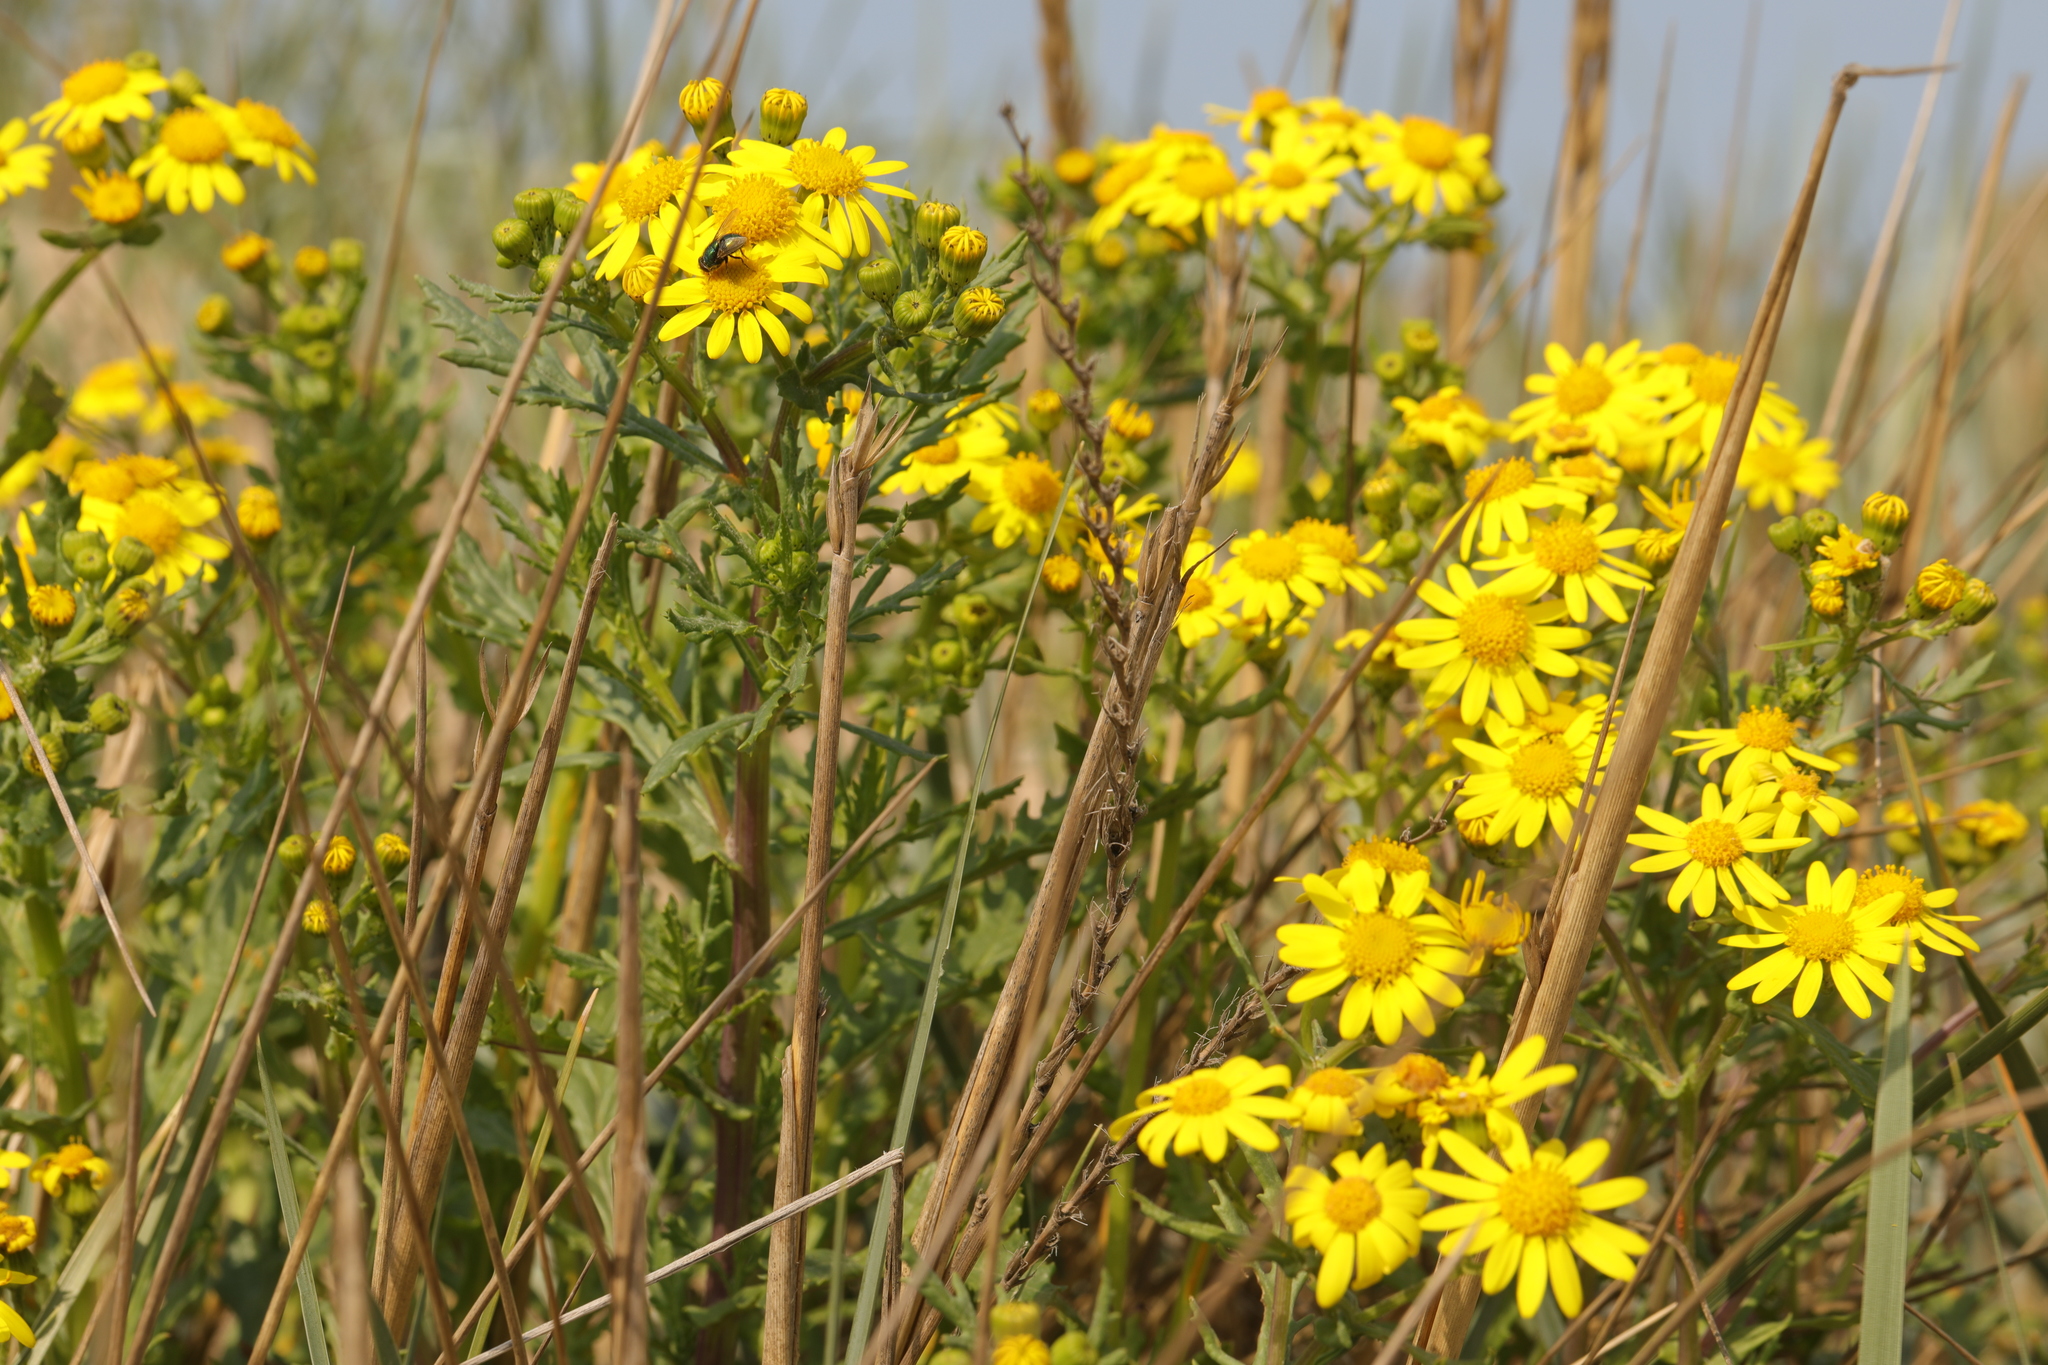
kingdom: Plantae
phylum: Tracheophyta
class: Magnoliopsida
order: Asterales
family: Asteraceae
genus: Senecio
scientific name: Senecio squalidus
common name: Oxford ragwort
